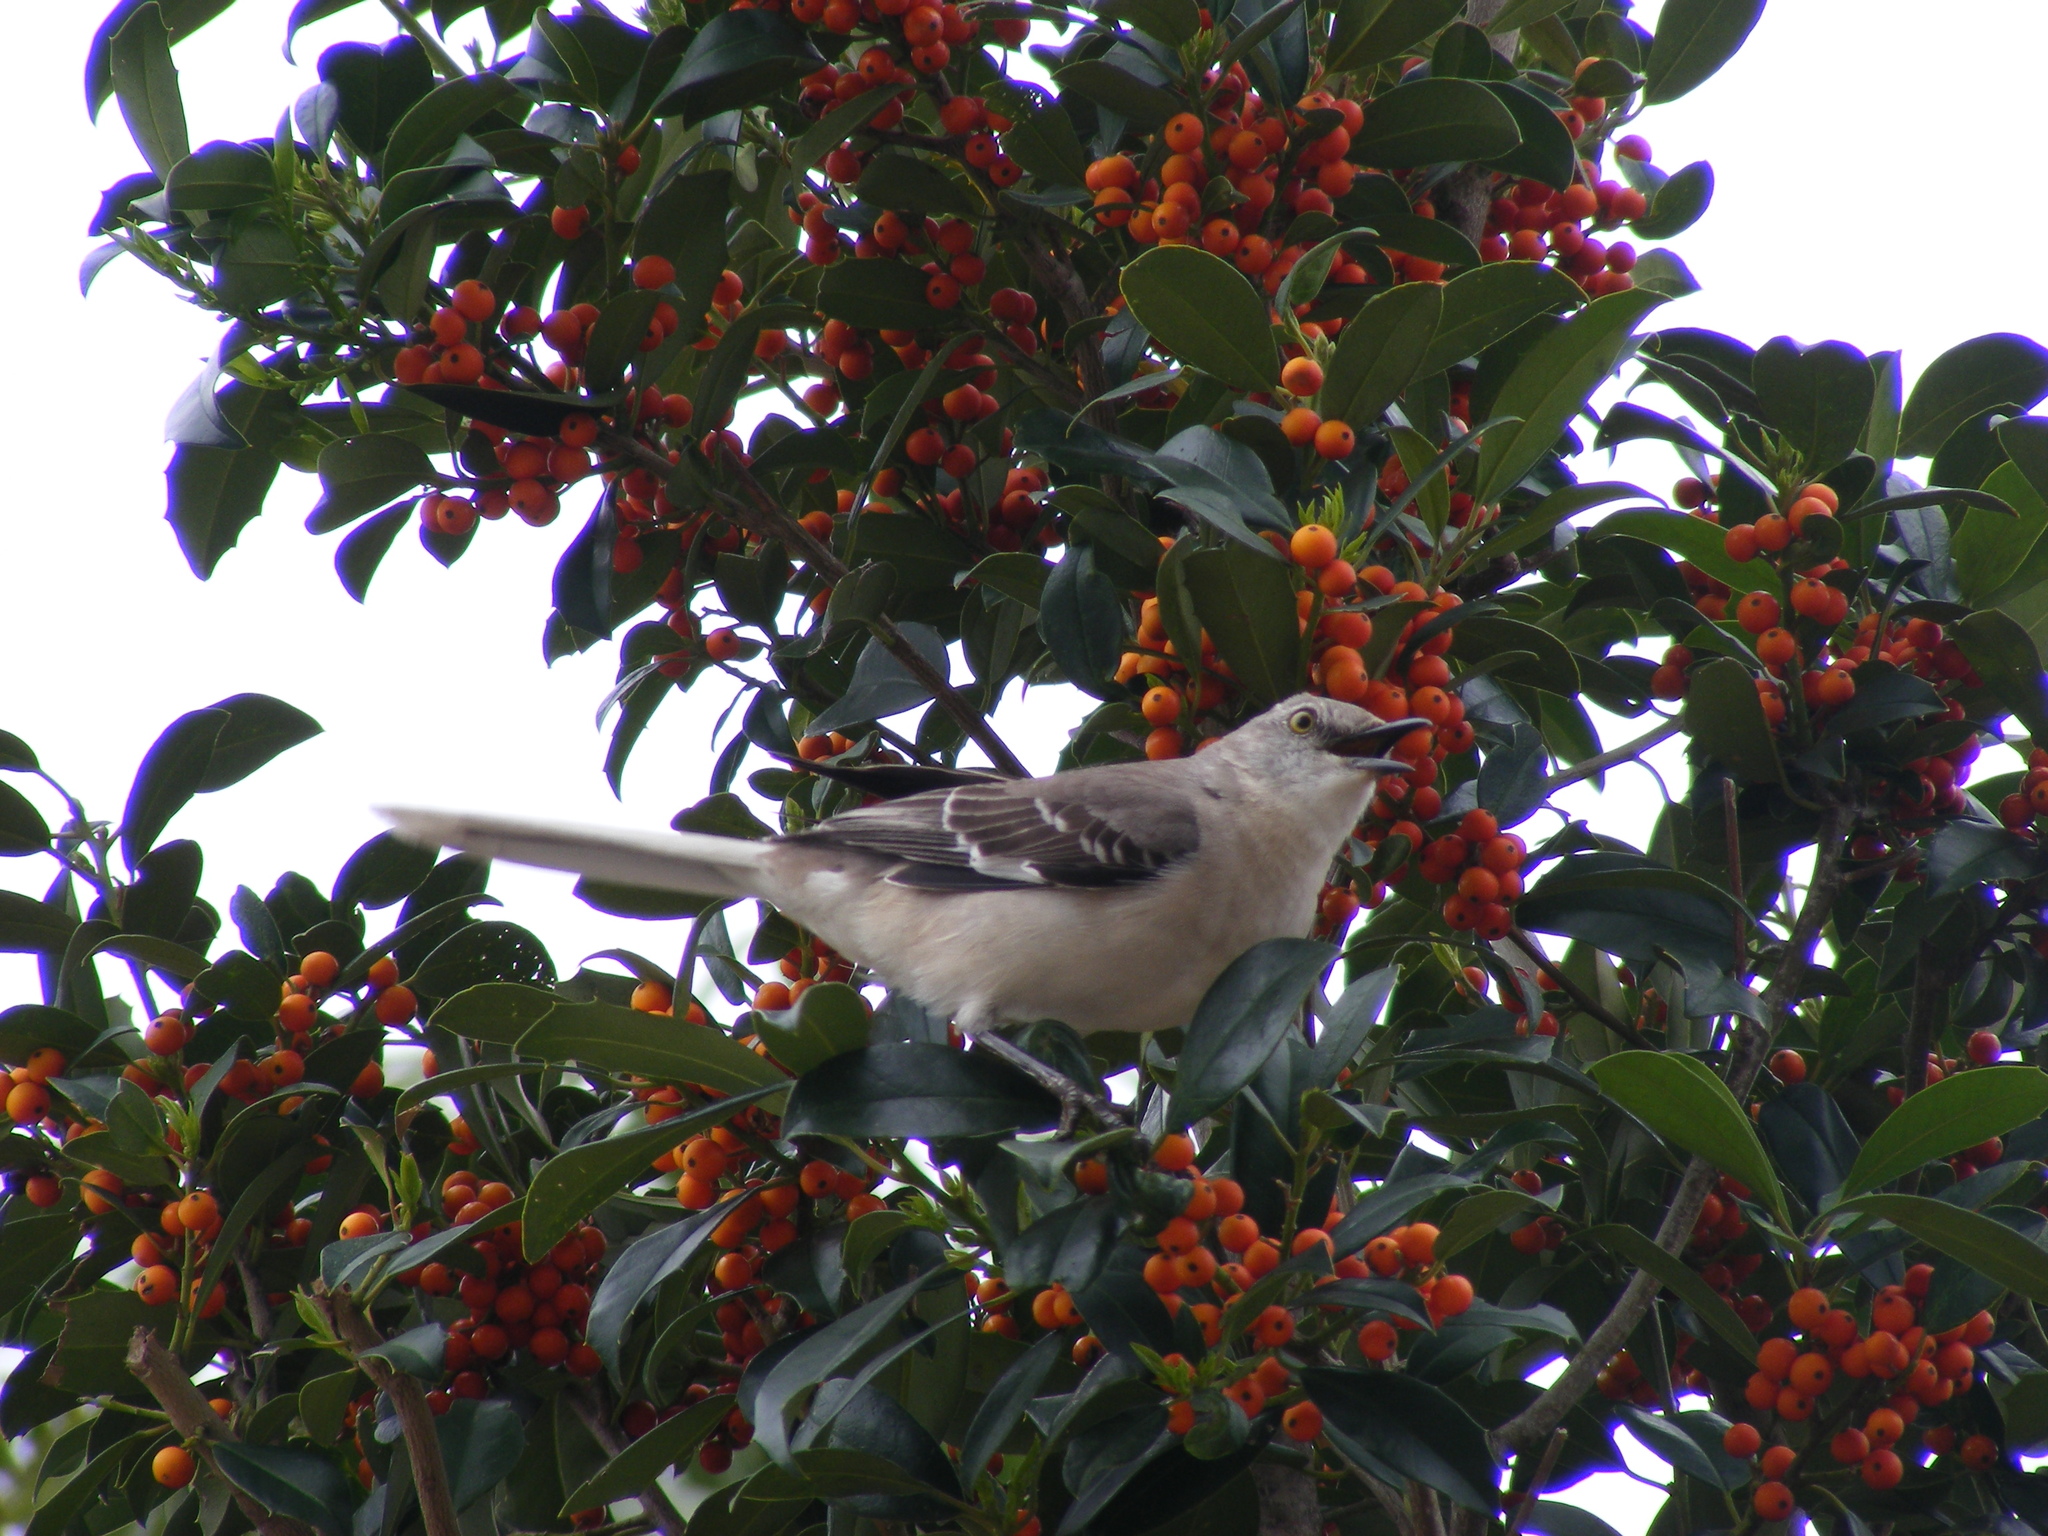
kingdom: Animalia
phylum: Chordata
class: Aves
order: Passeriformes
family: Mimidae
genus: Mimus
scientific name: Mimus polyglottos
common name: Northern mockingbird
